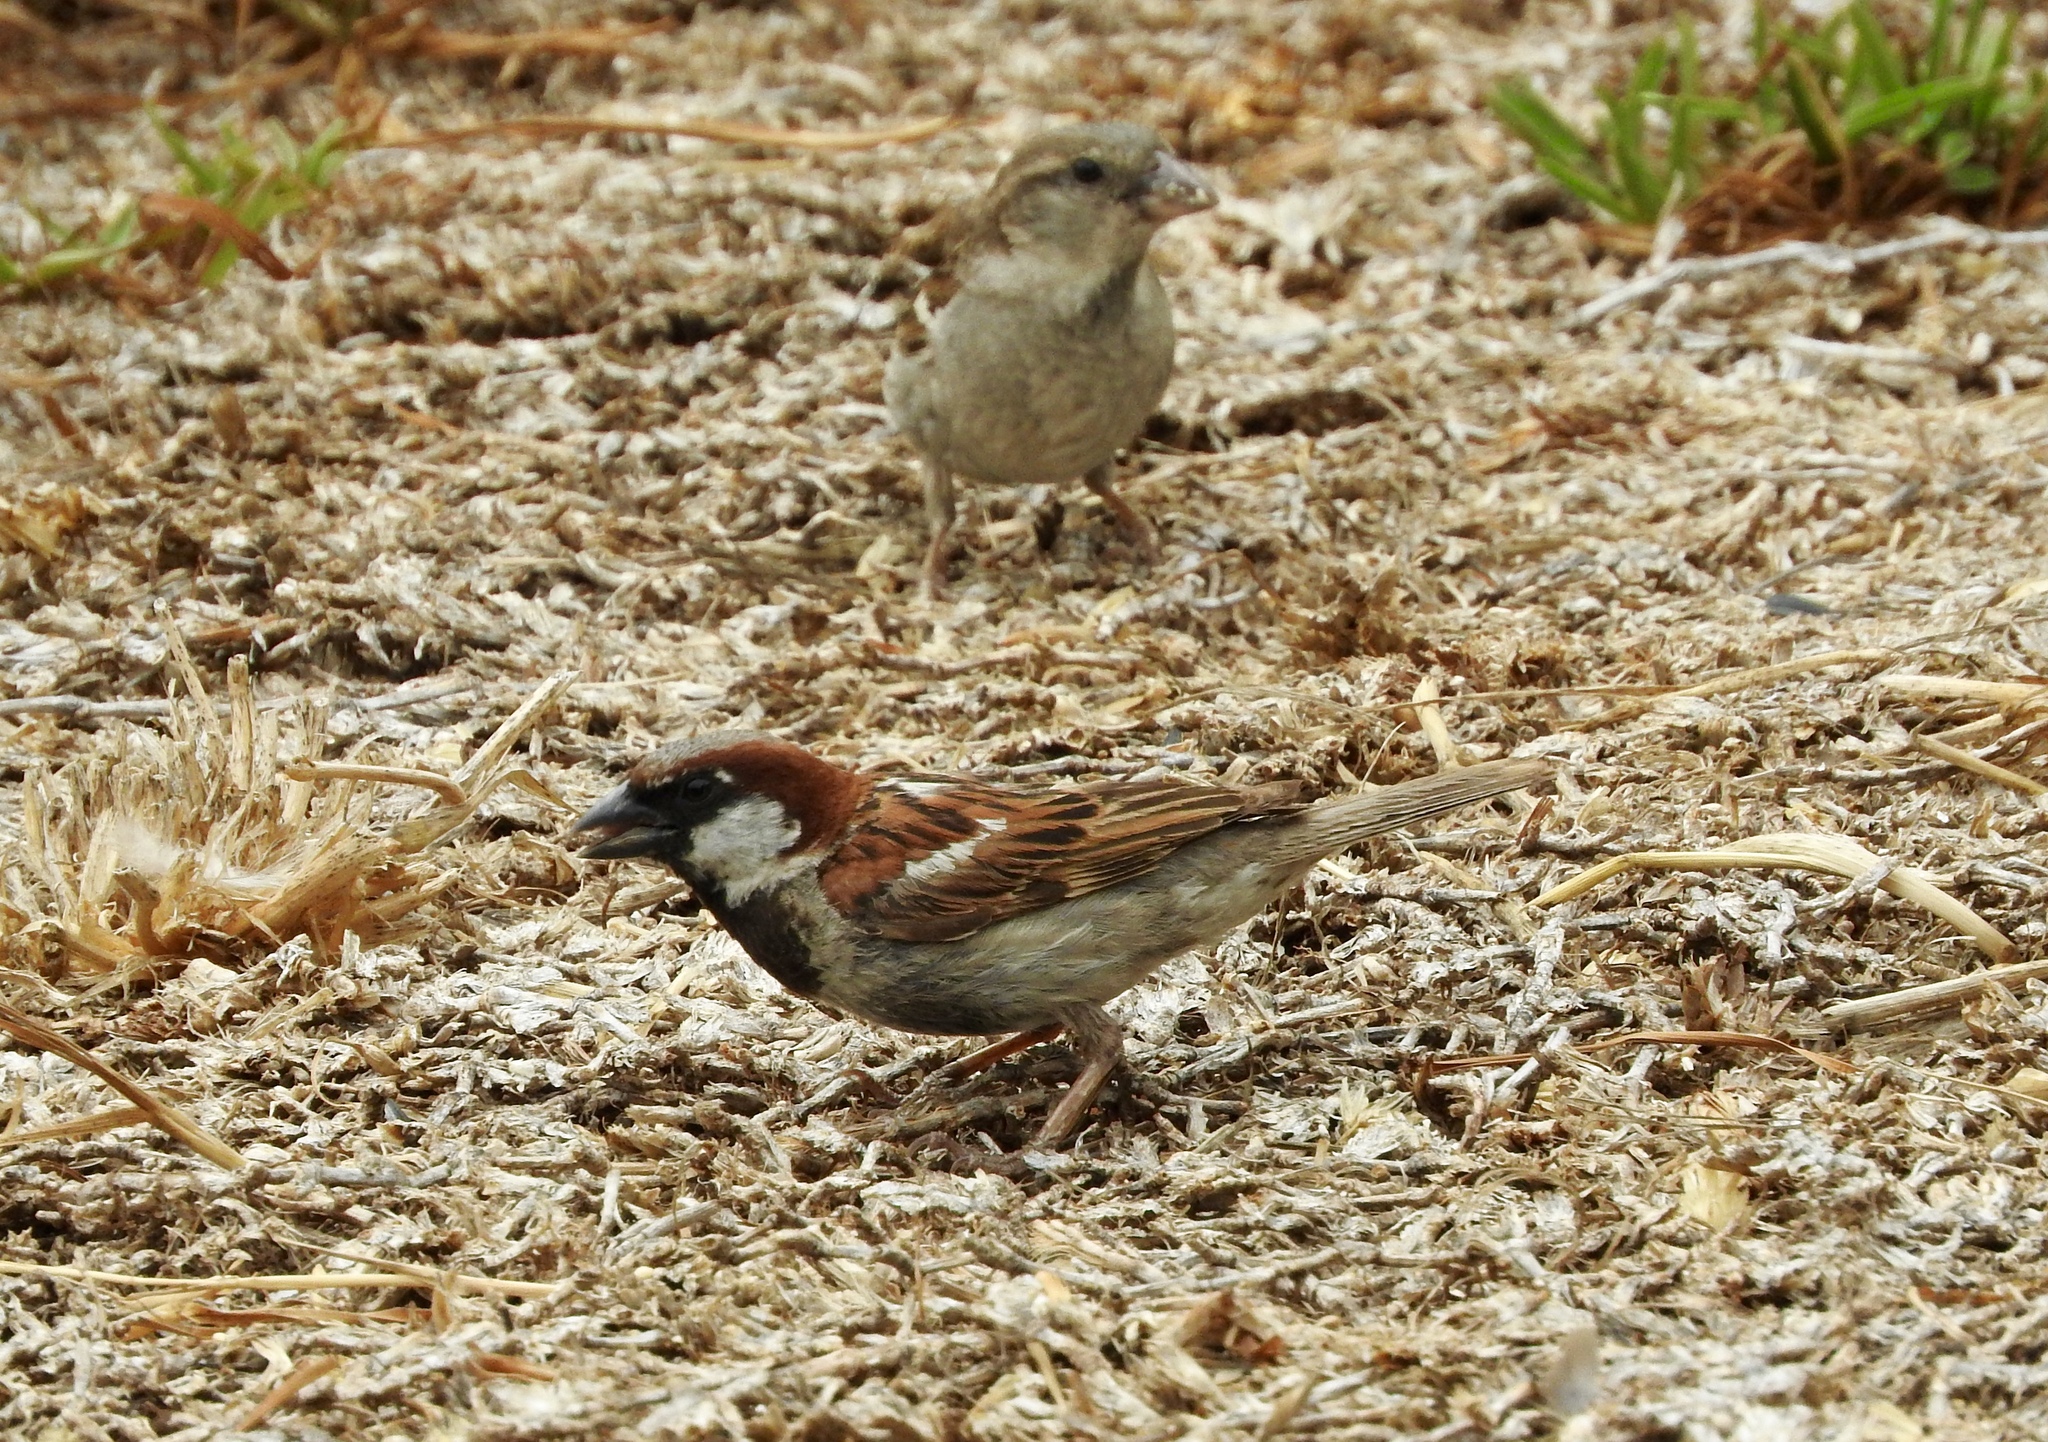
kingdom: Animalia
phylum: Chordata
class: Aves
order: Passeriformes
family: Passeridae
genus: Passer
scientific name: Passer domesticus
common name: House sparrow
